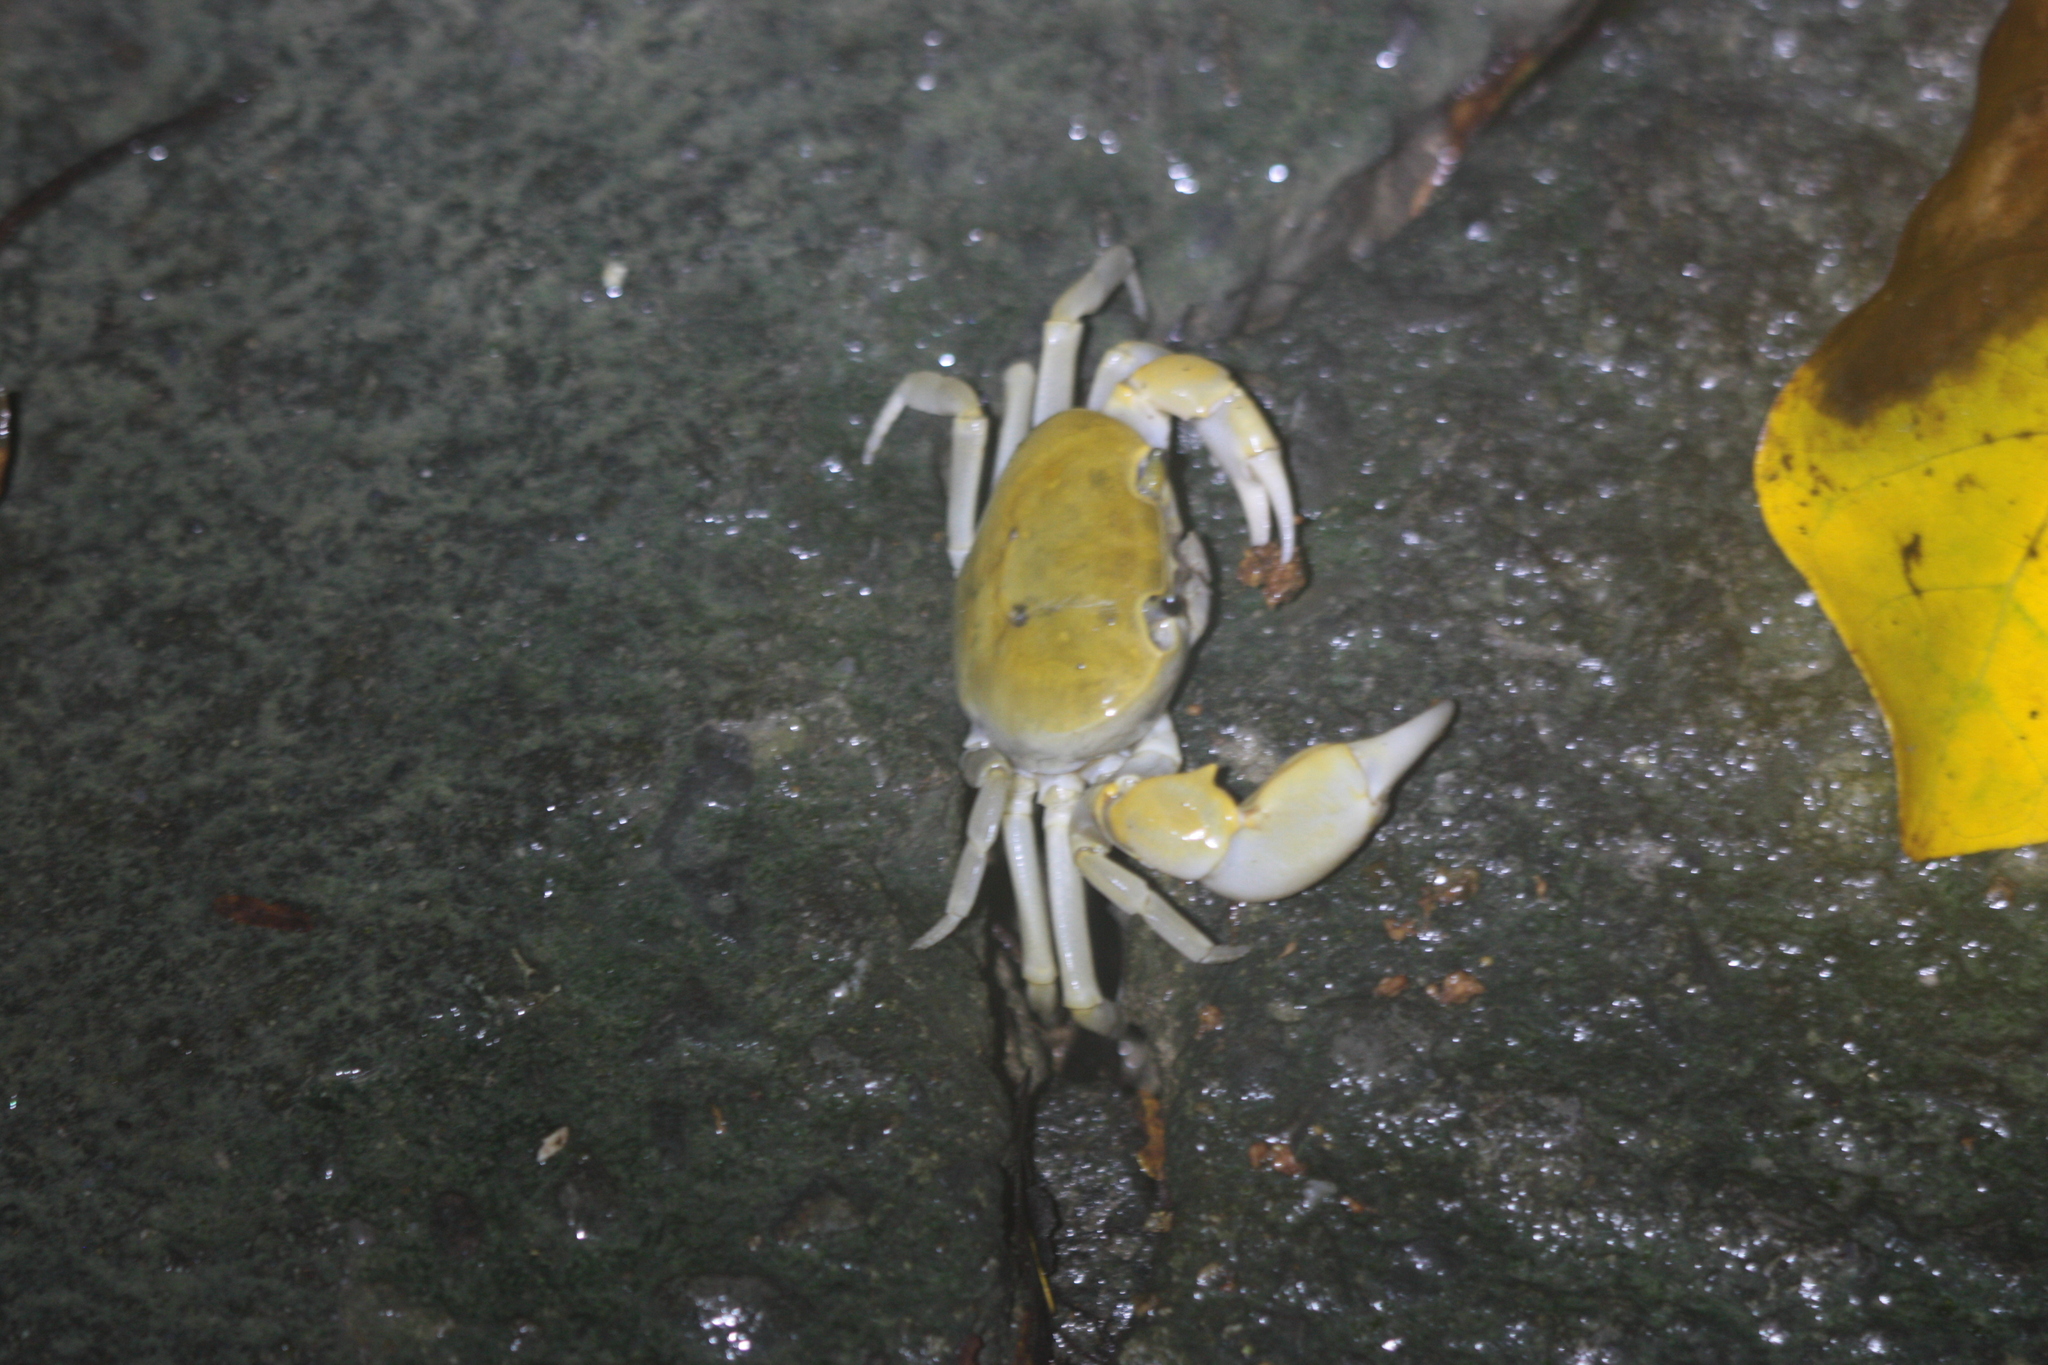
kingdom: Animalia
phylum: Arthropoda
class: Malacostraca
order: Decapoda
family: Potamidae
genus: Geothelphusa
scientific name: Geothelphusa makatao
